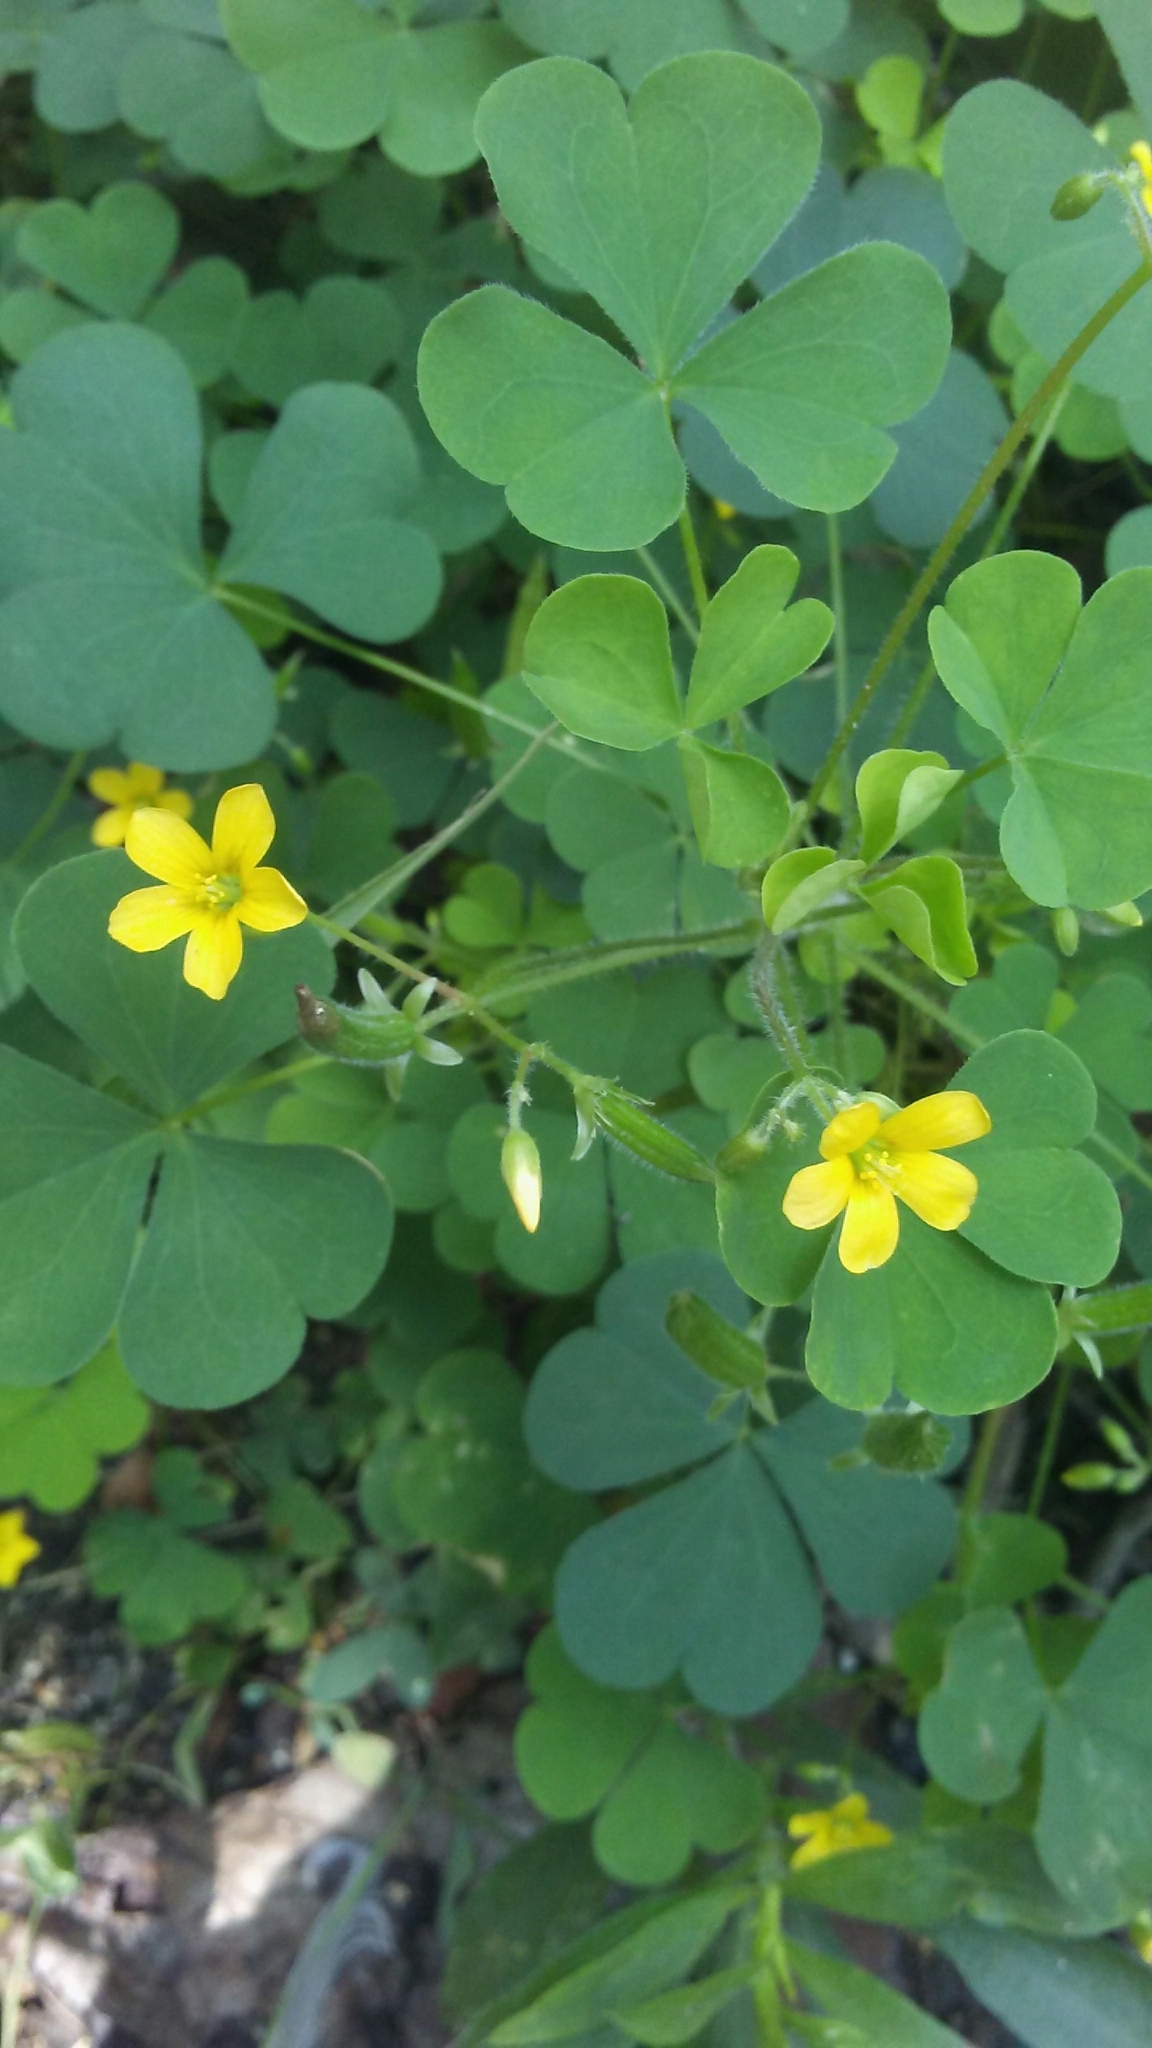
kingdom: Plantae
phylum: Tracheophyta
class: Magnoliopsida
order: Oxalidales
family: Oxalidaceae
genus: Oxalis
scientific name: Oxalis stricta
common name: Upright yellow-sorrel
